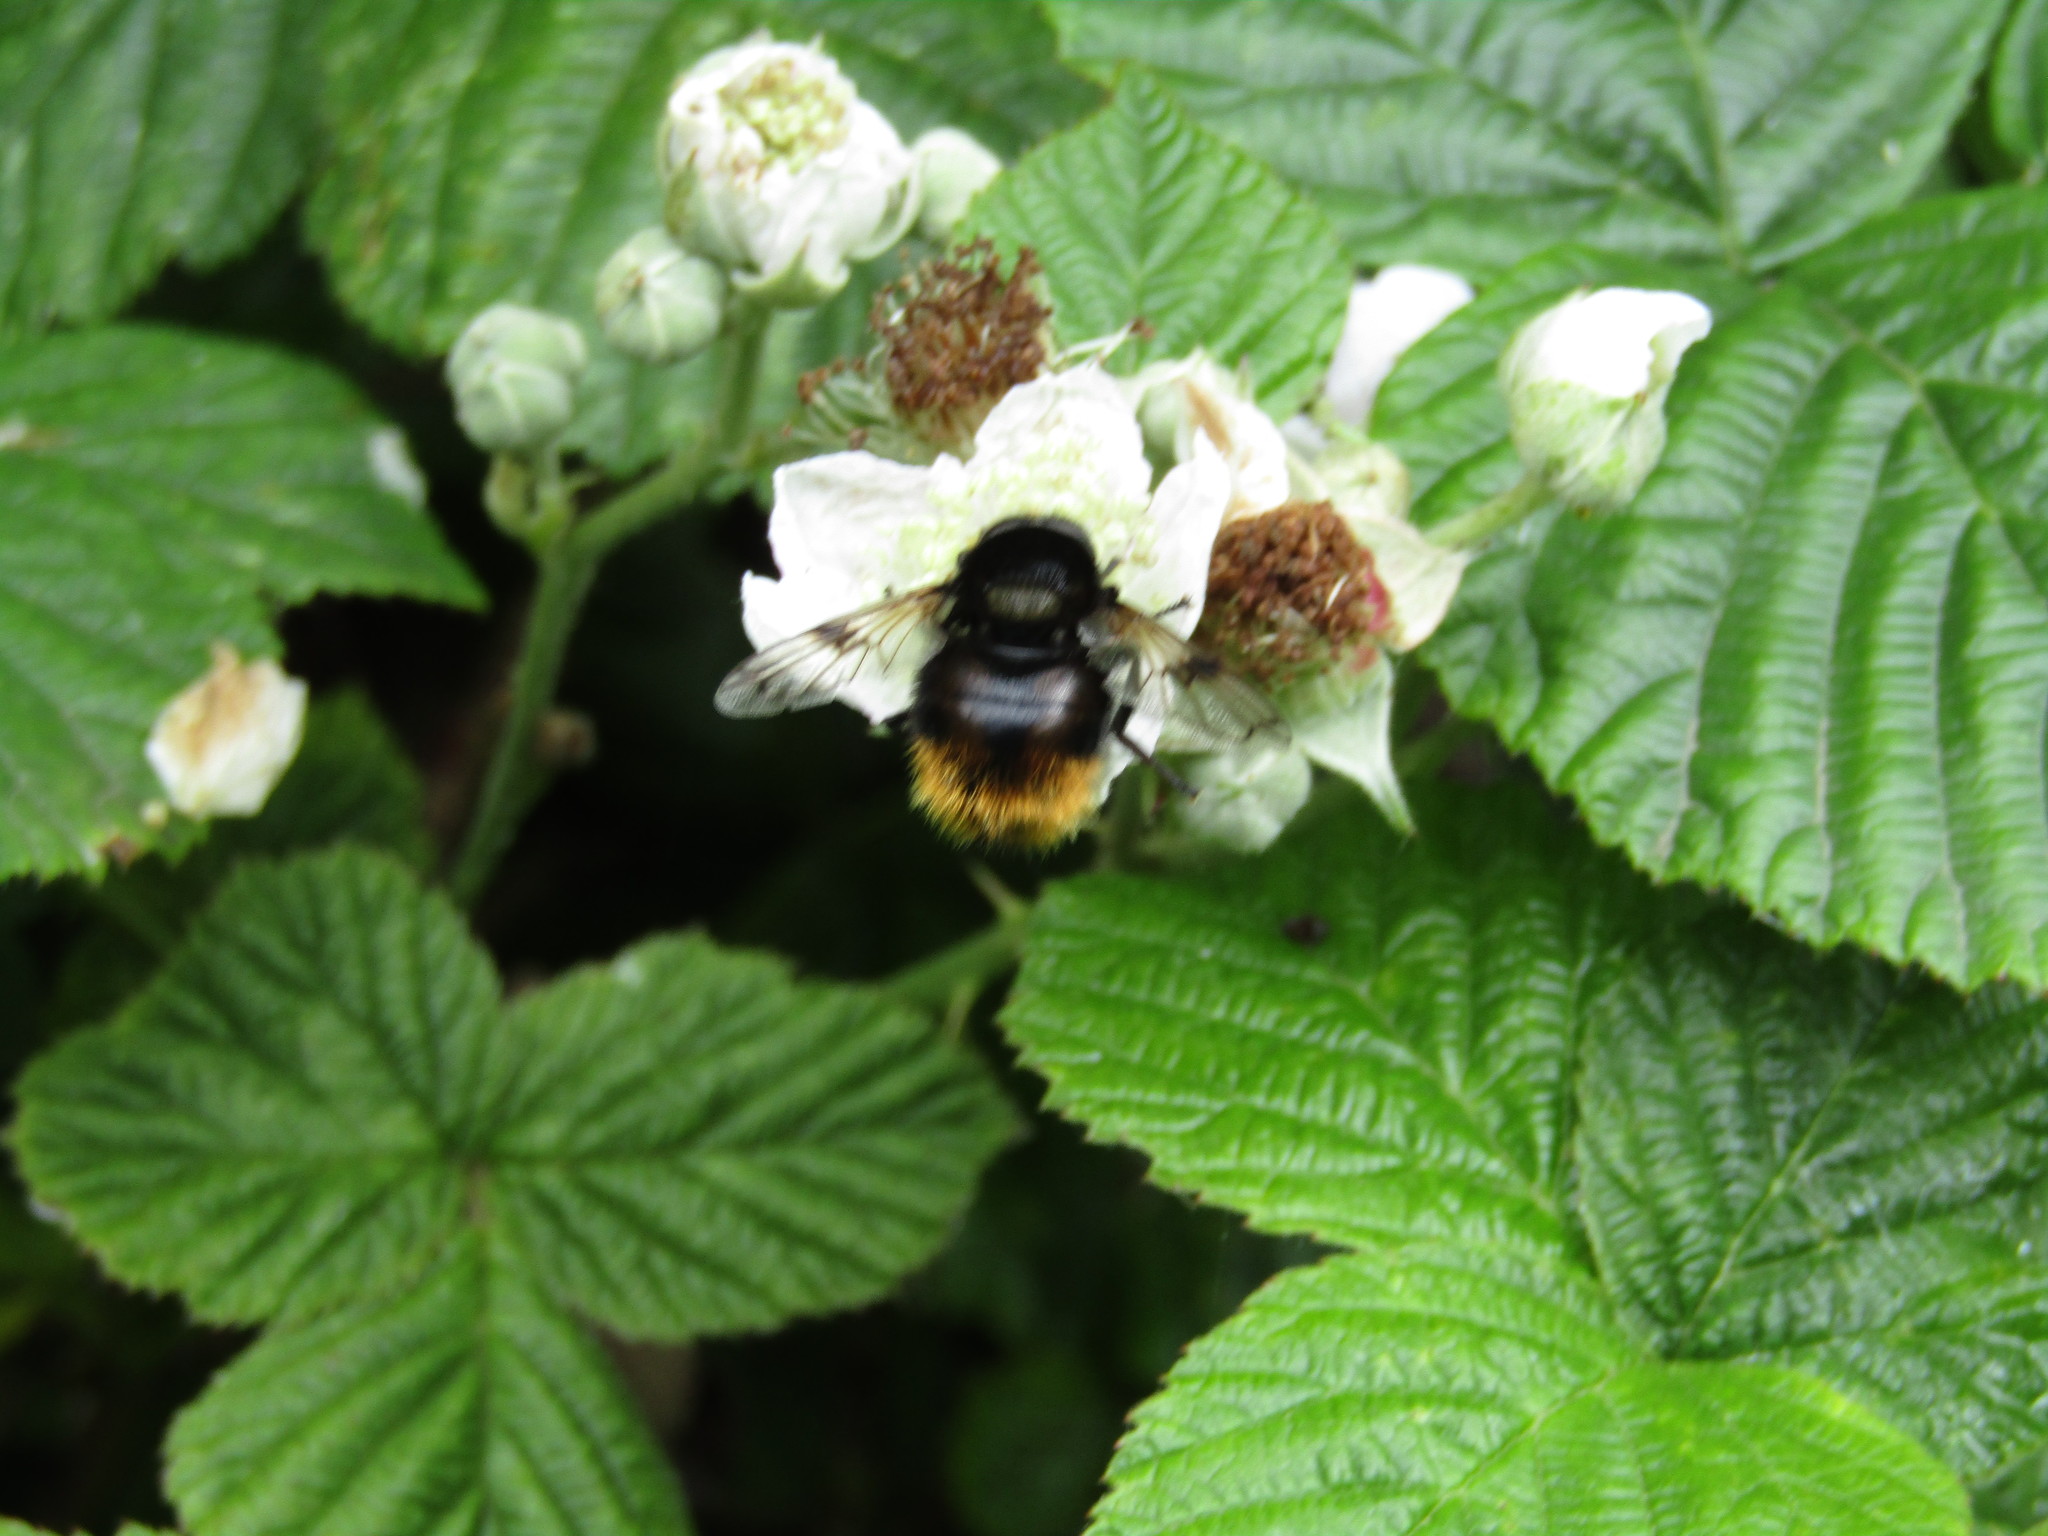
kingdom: Animalia
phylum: Arthropoda
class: Insecta
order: Diptera
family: Syrphidae
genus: Volucella
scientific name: Volucella bombylans
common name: Bumble bee hover fly
